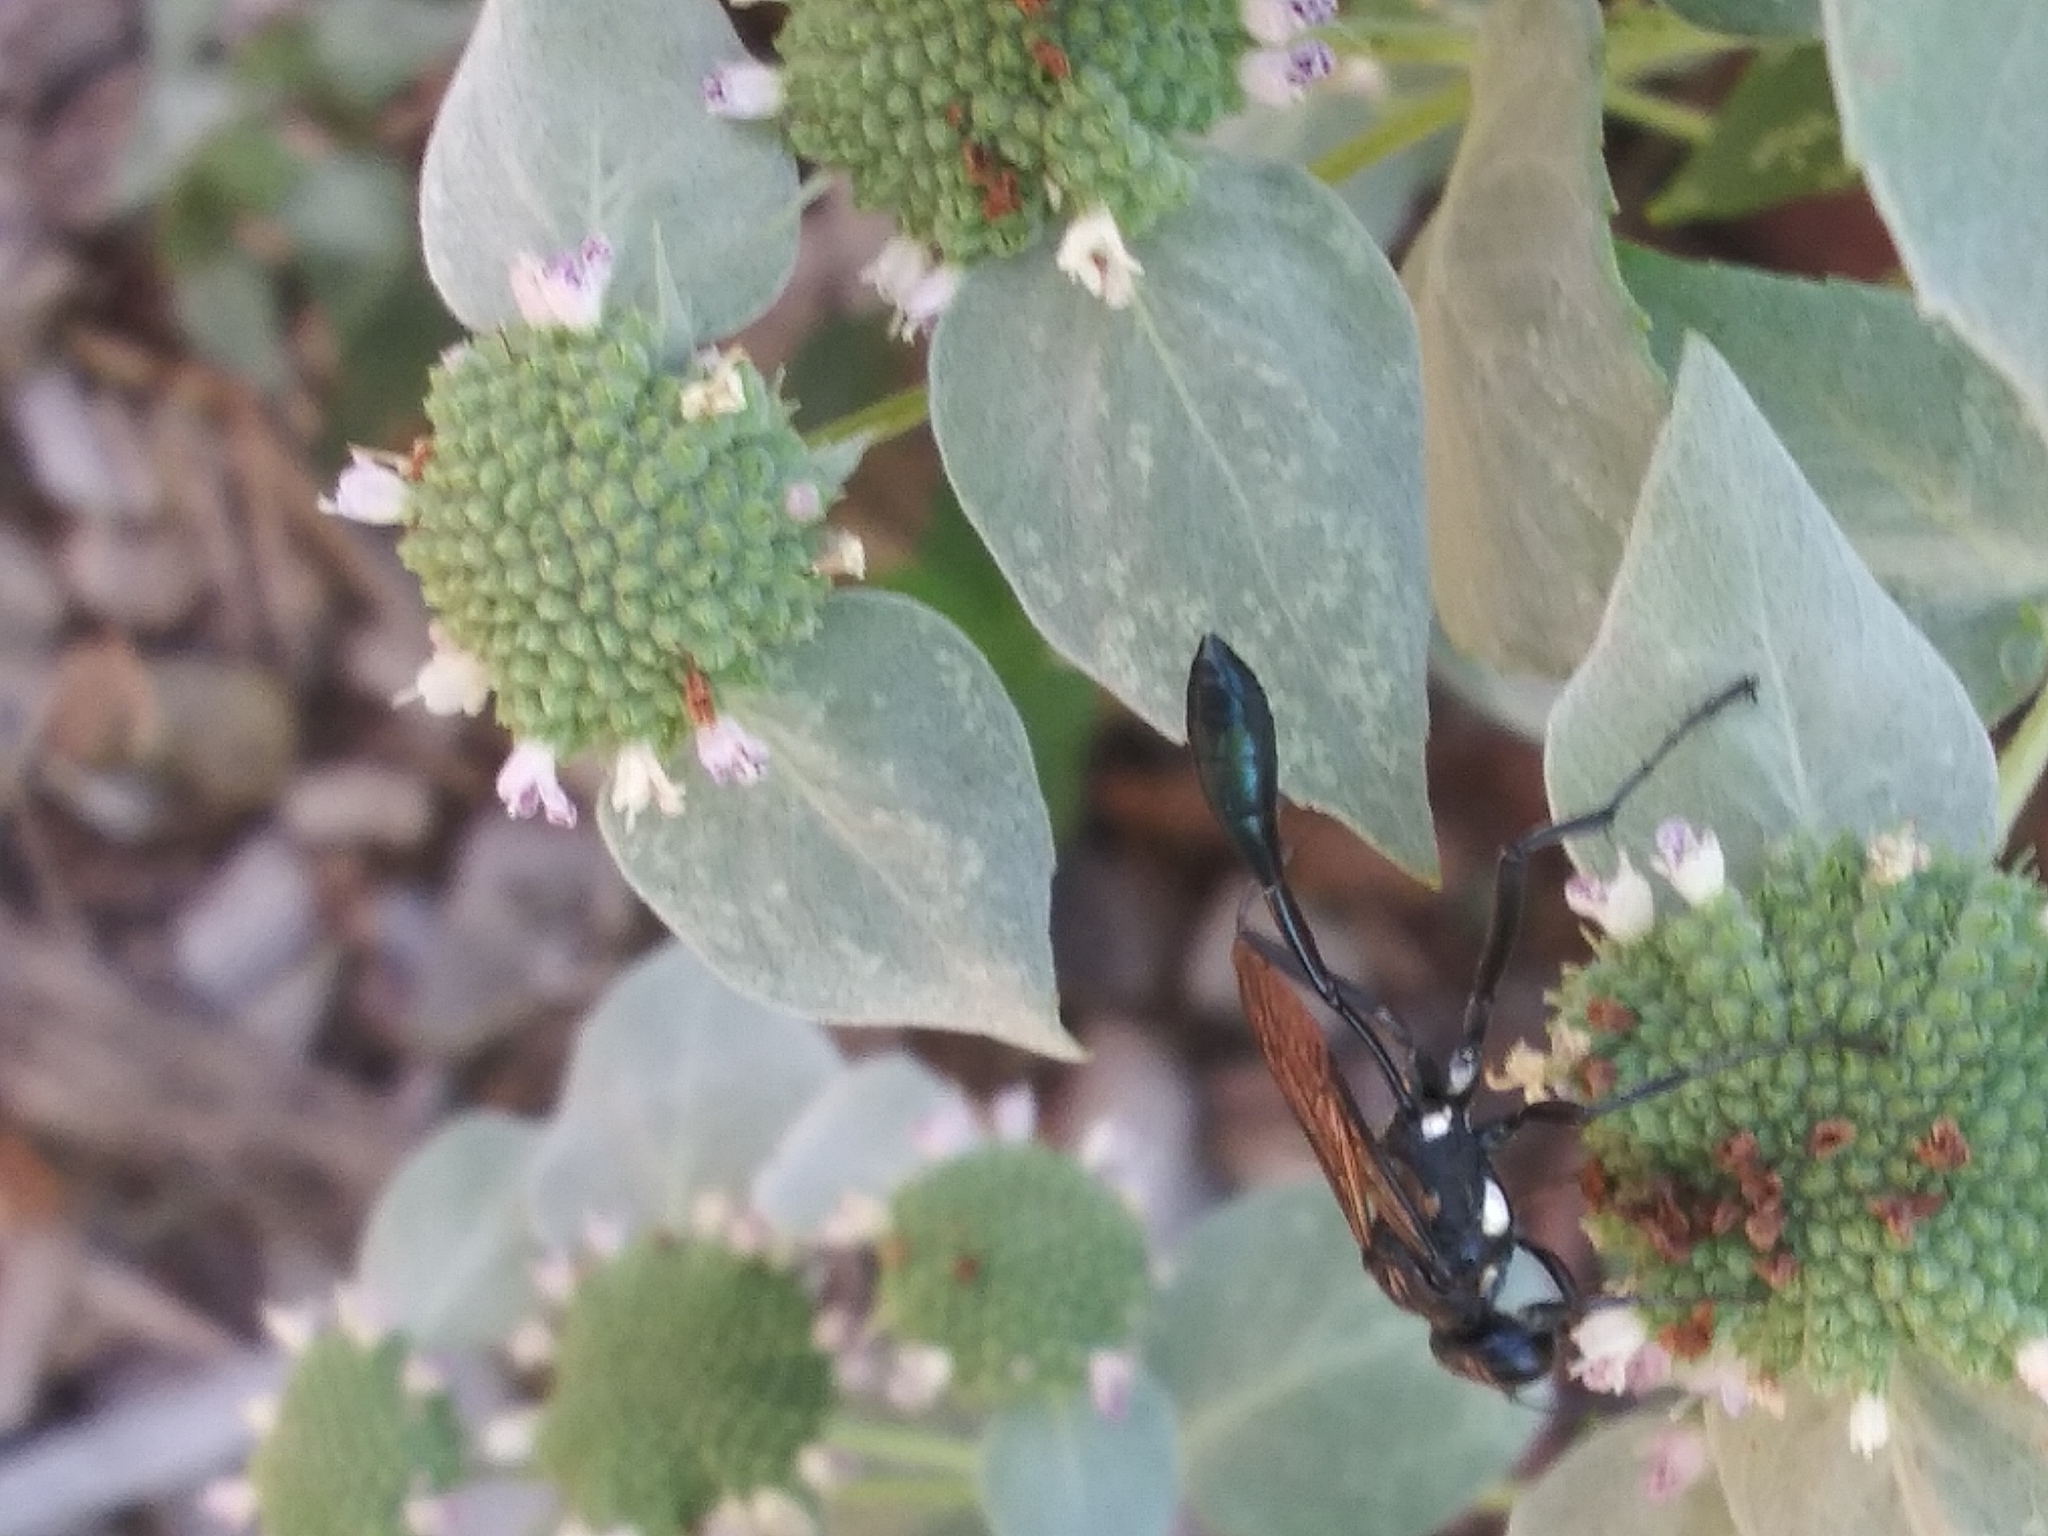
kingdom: Animalia
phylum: Arthropoda
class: Insecta
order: Hymenoptera
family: Sphecidae
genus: Eremnophila
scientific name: Eremnophila aureonotata
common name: Gold-marked thread-waisted wasp
